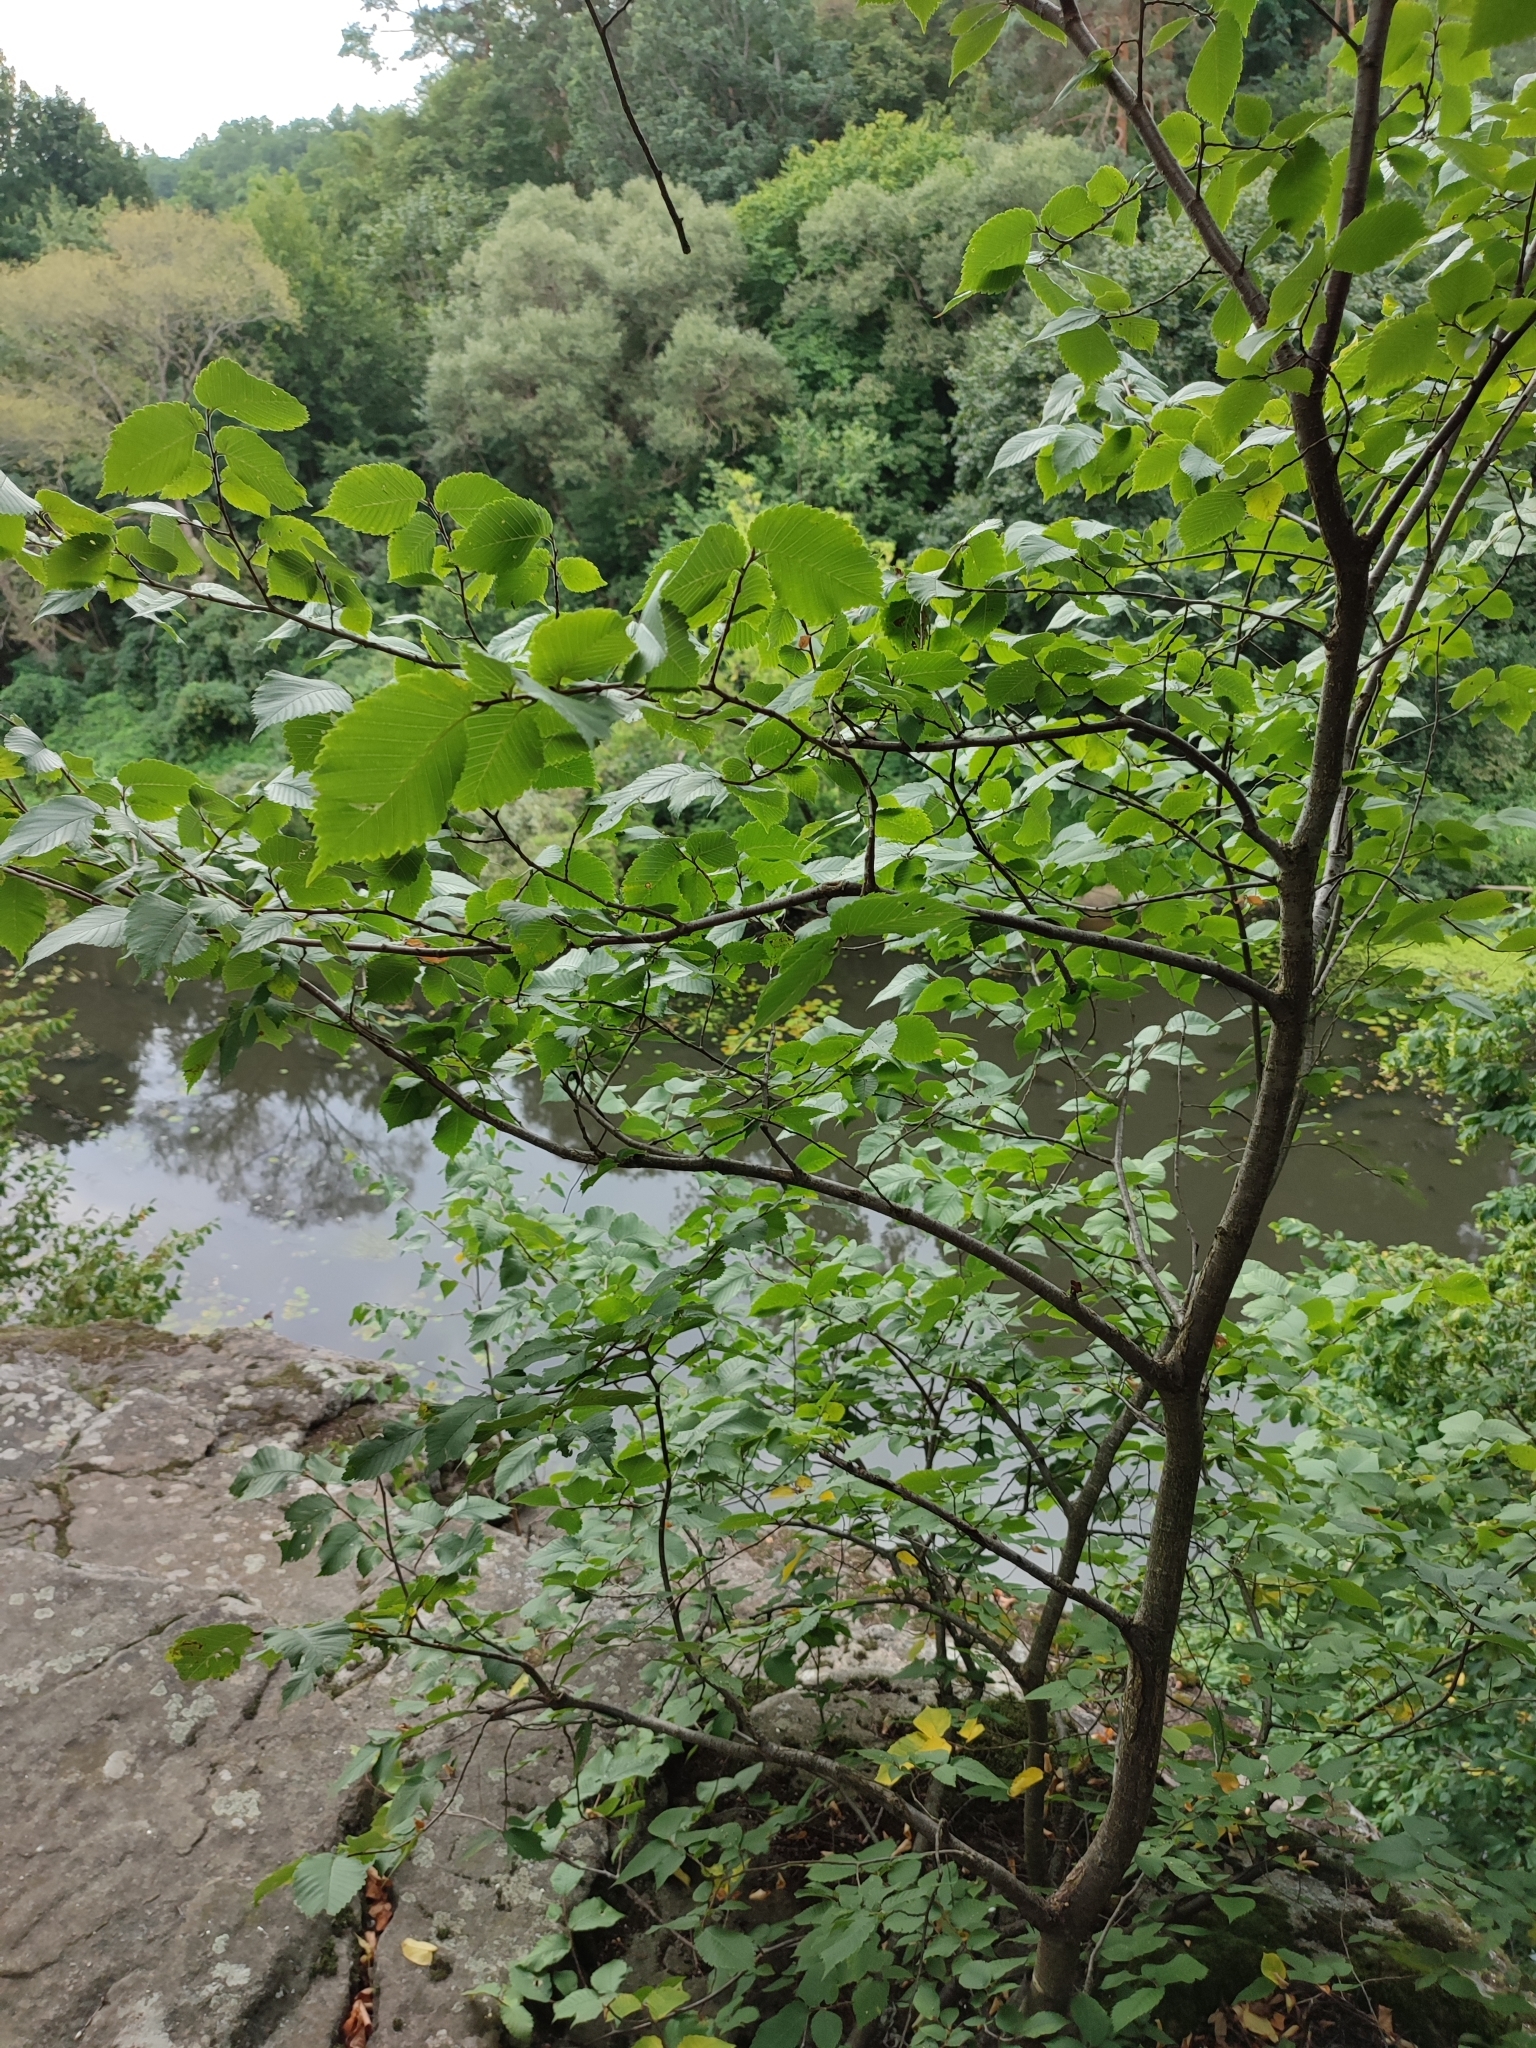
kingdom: Plantae
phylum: Tracheophyta
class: Magnoliopsida
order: Rosales
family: Ulmaceae
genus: Ulmus
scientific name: Ulmus laevis
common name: European white-elm
